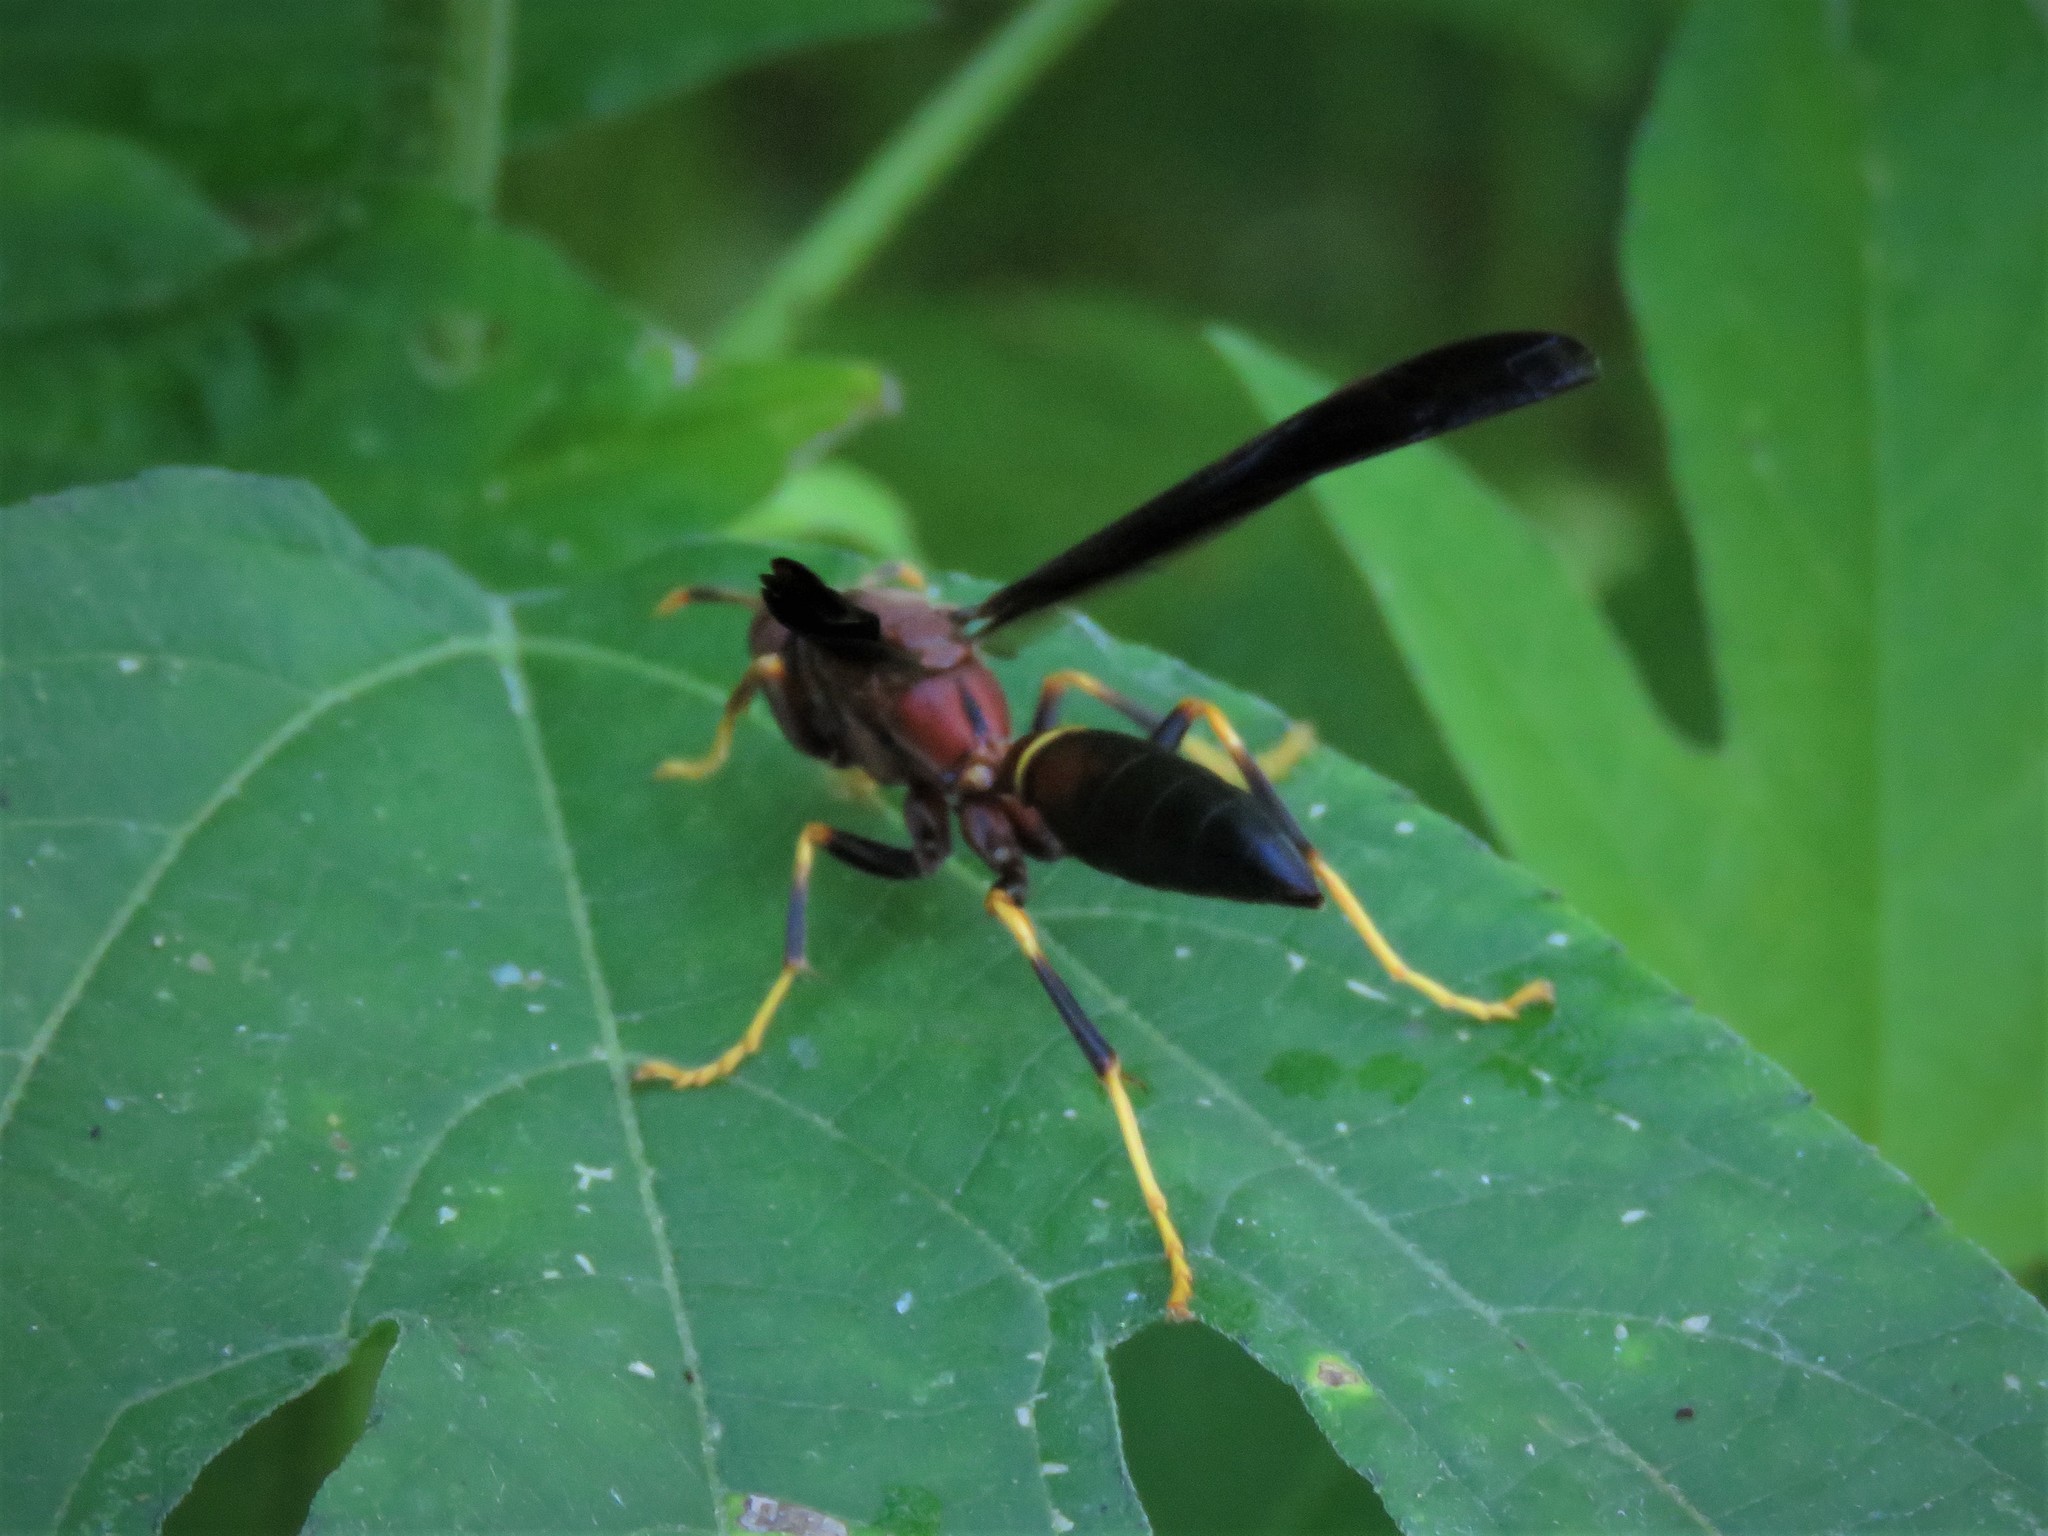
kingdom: Animalia
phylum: Arthropoda
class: Insecta
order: Hymenoptera
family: Eumenidae
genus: Polistes
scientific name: Polistes annularis
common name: Ringed paper wasp
